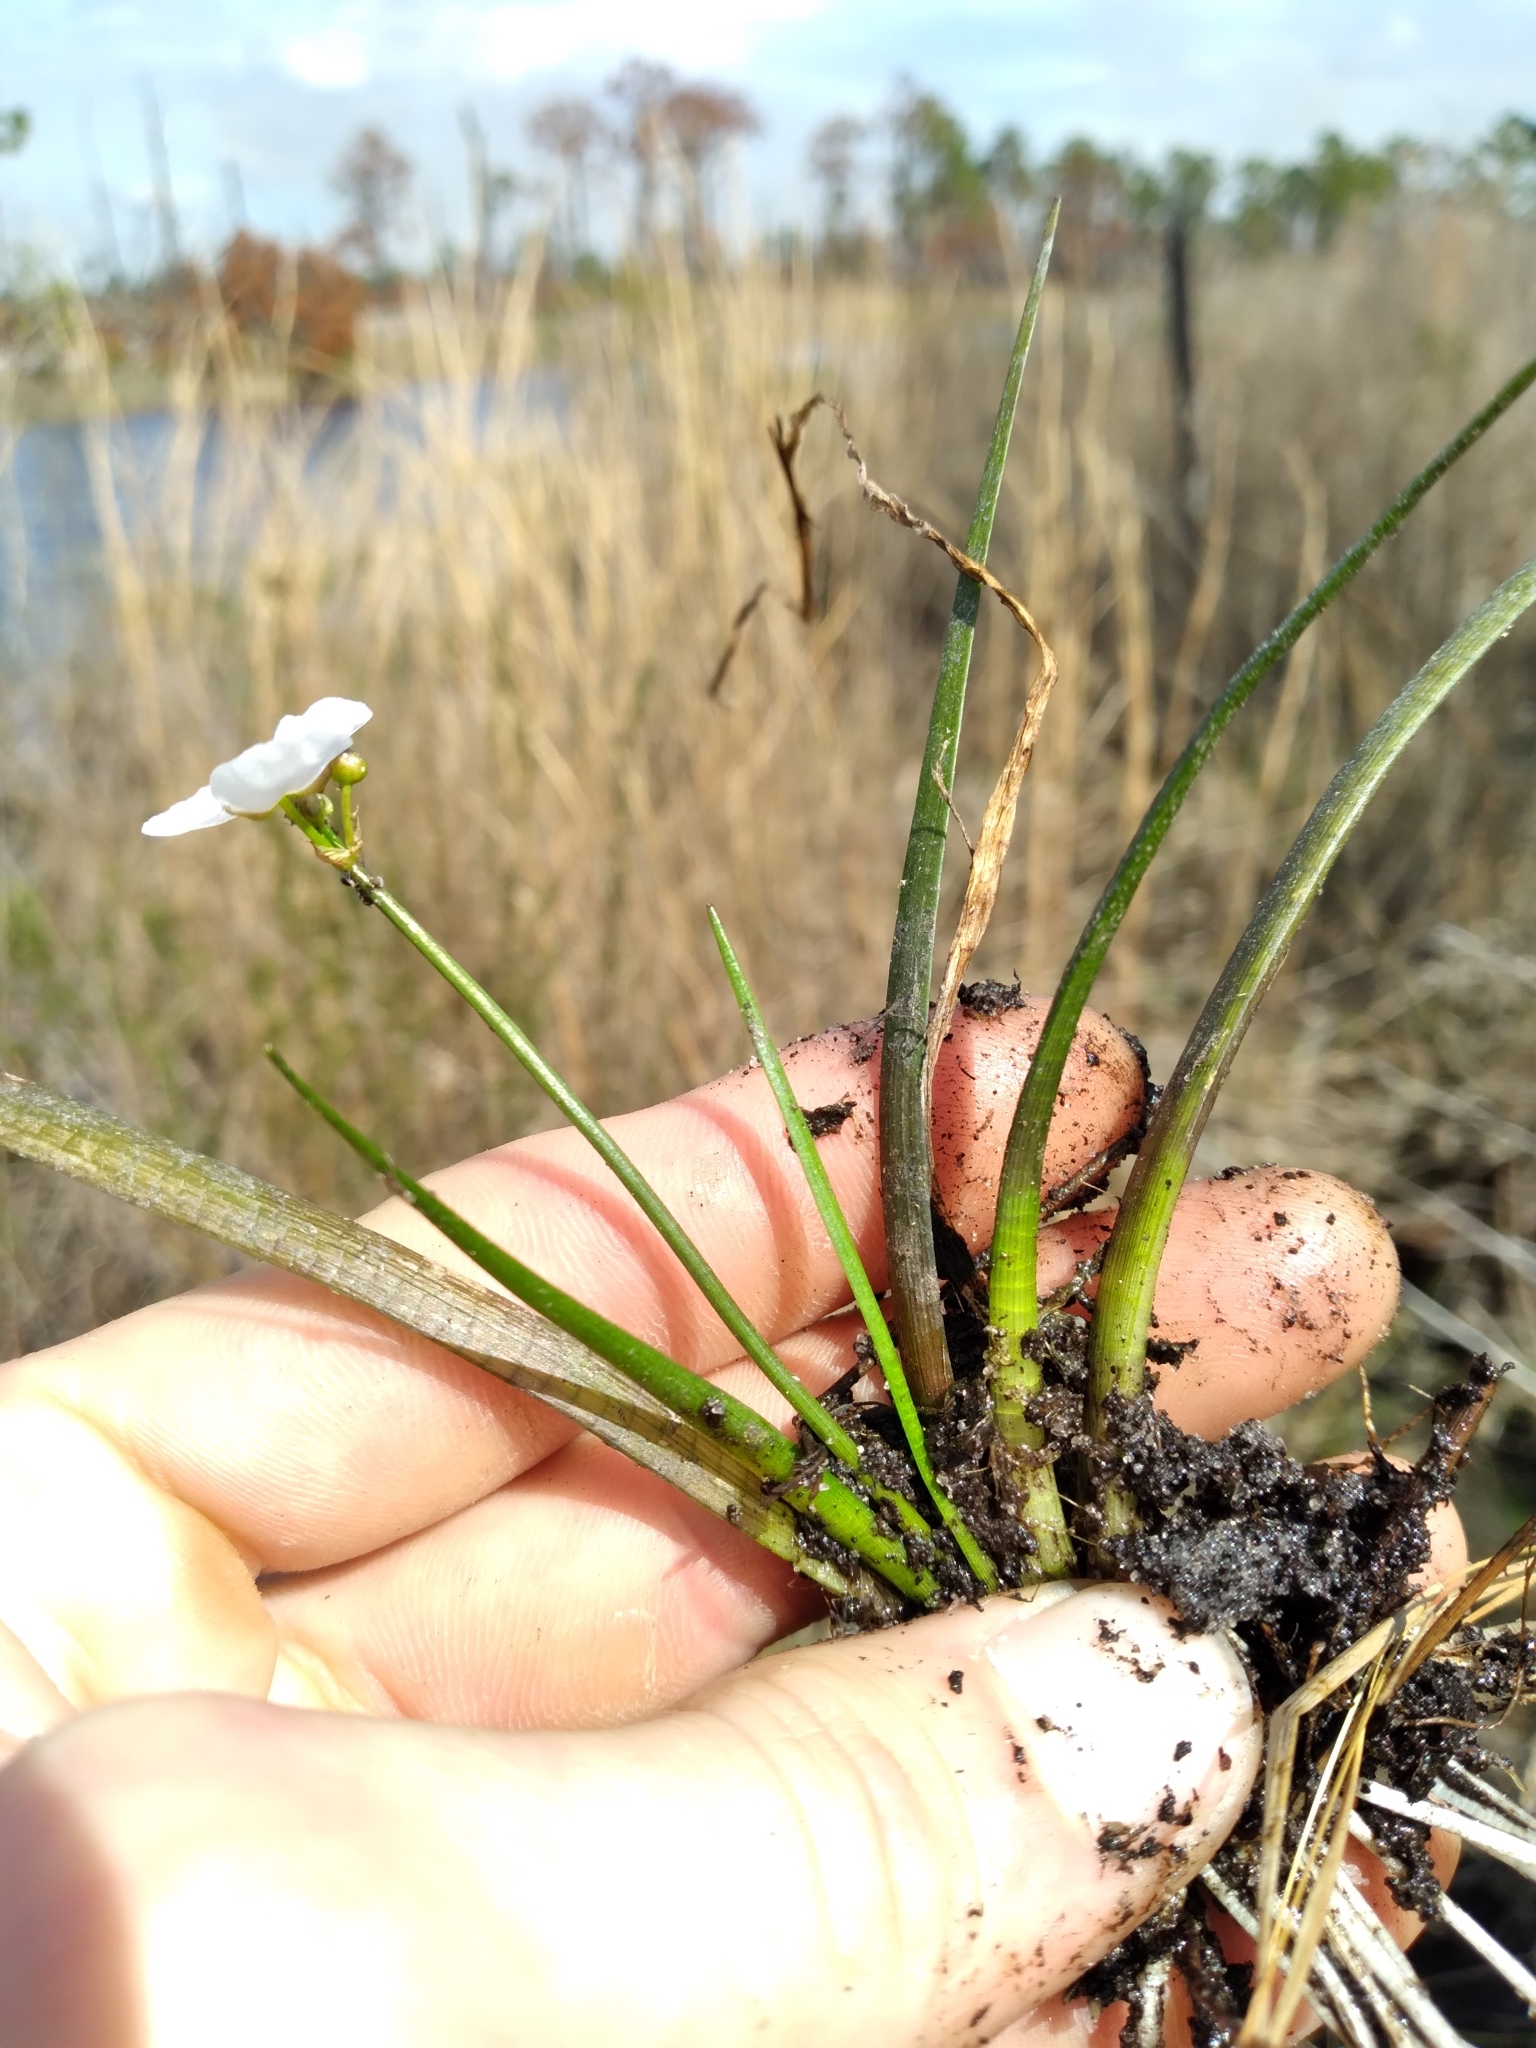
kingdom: Plantae
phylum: Tracheophyta
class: Liliopsida
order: Alismatales
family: Alismataceae
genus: Sagittaria
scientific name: Sagittaria graminea
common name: Grass-leaved arrowhead
